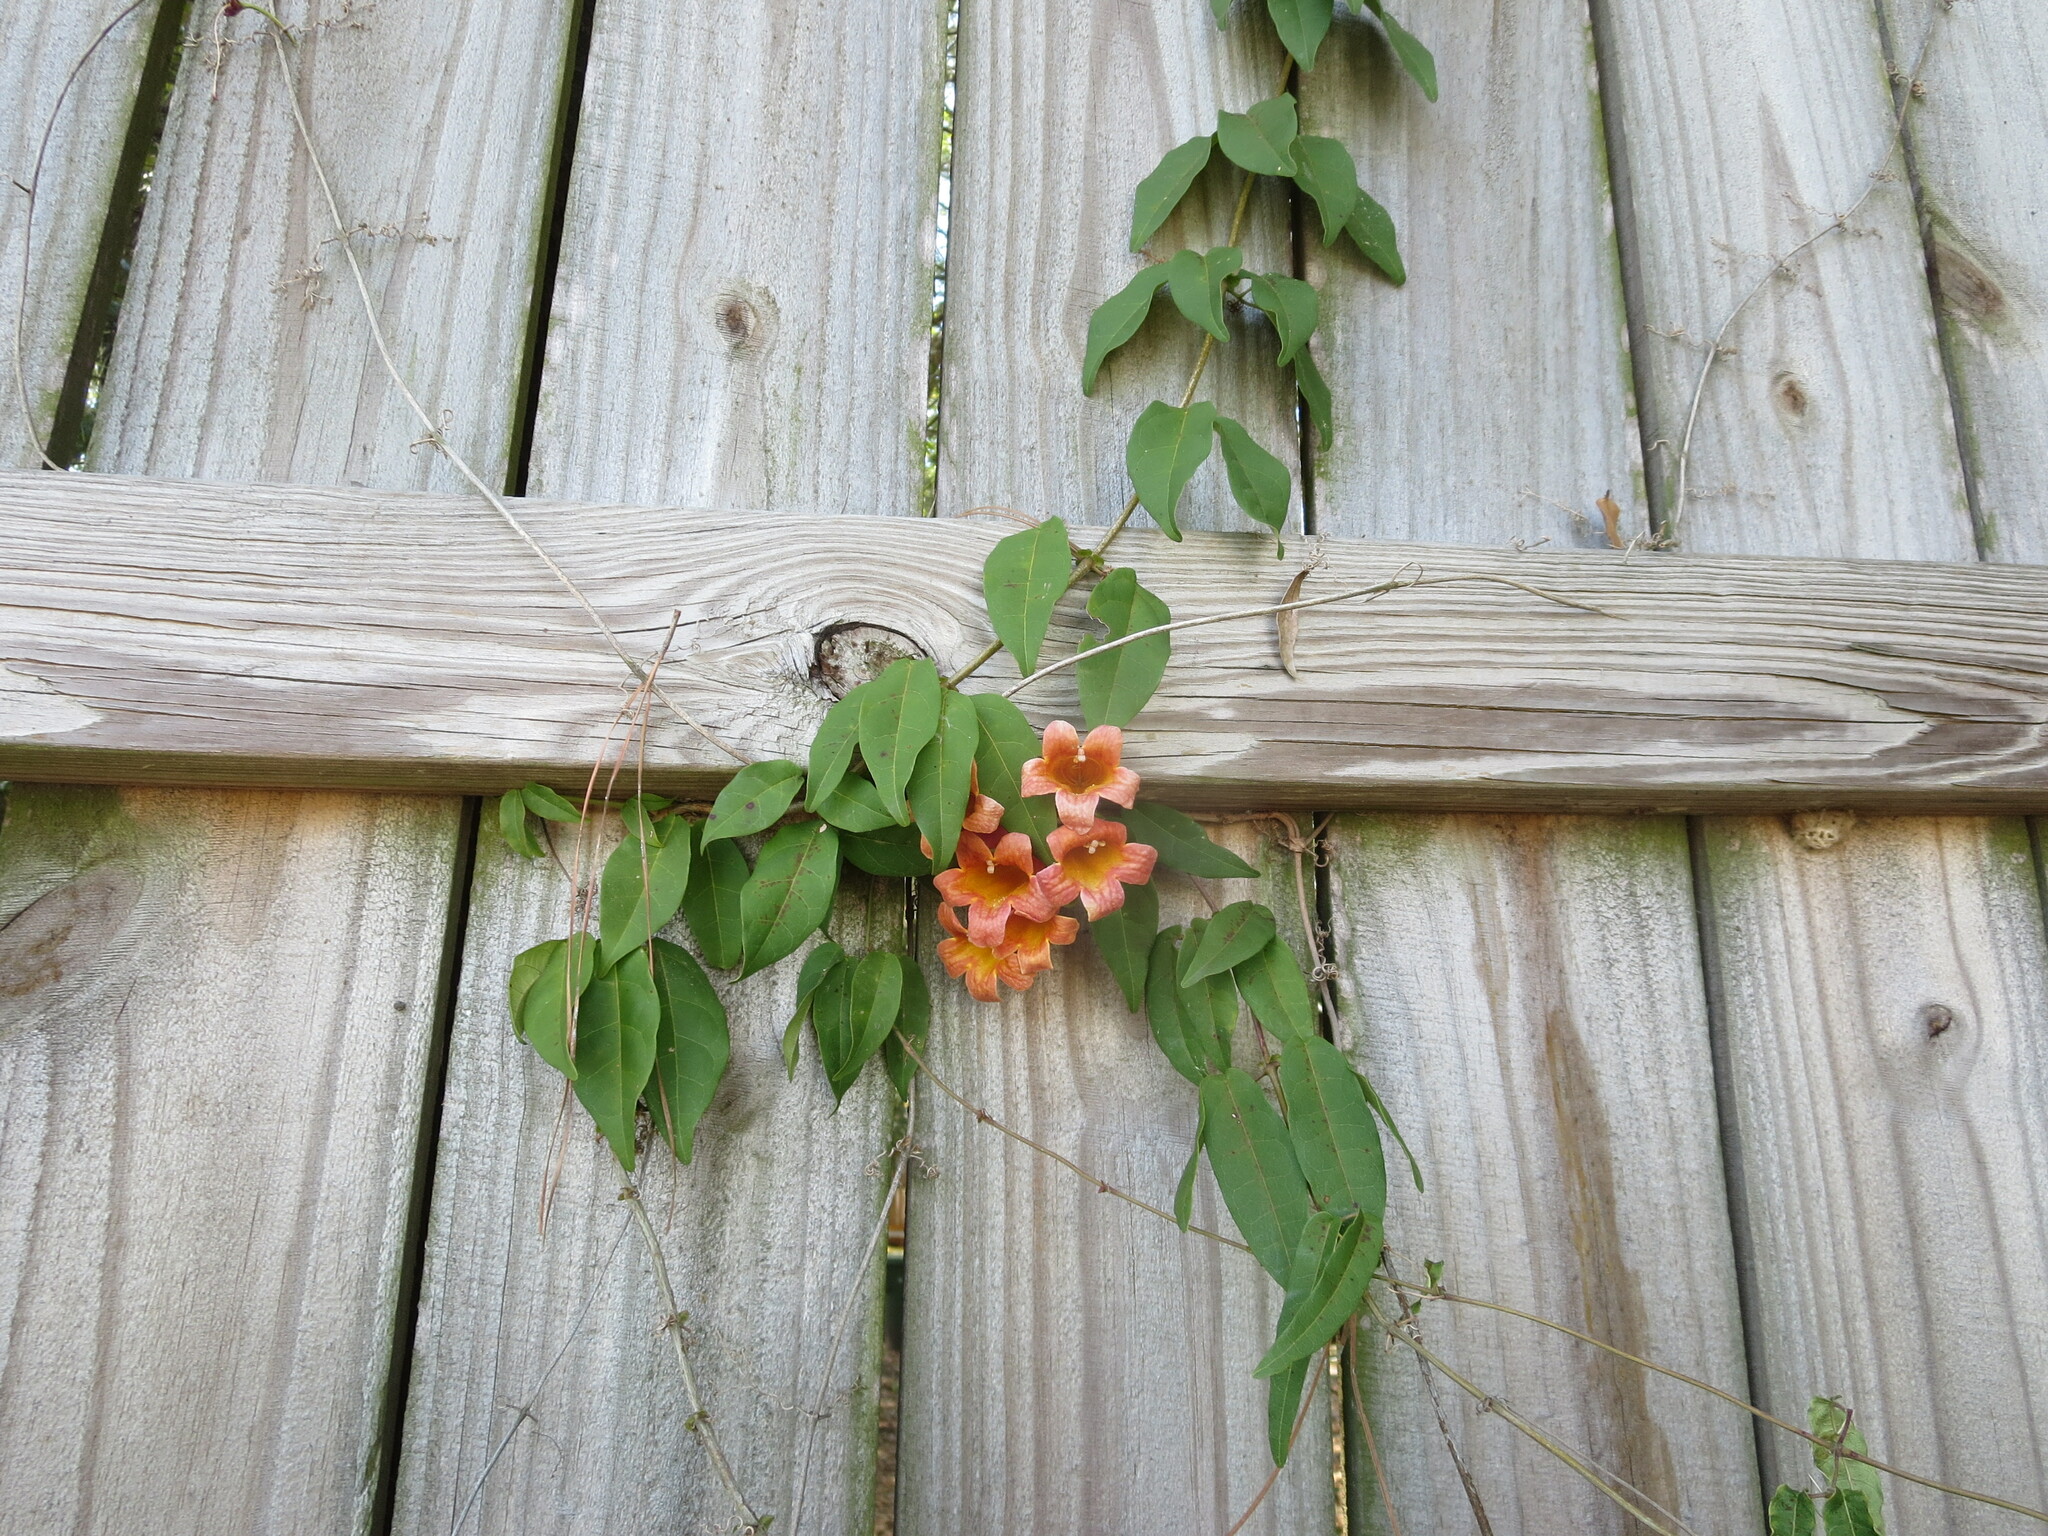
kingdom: Plantae
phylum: Tracheophyta
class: Magnoliopsida
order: Lamiales
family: Bignoniaceae
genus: Bignonia
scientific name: Bignonia capreolata
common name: Crossvine
